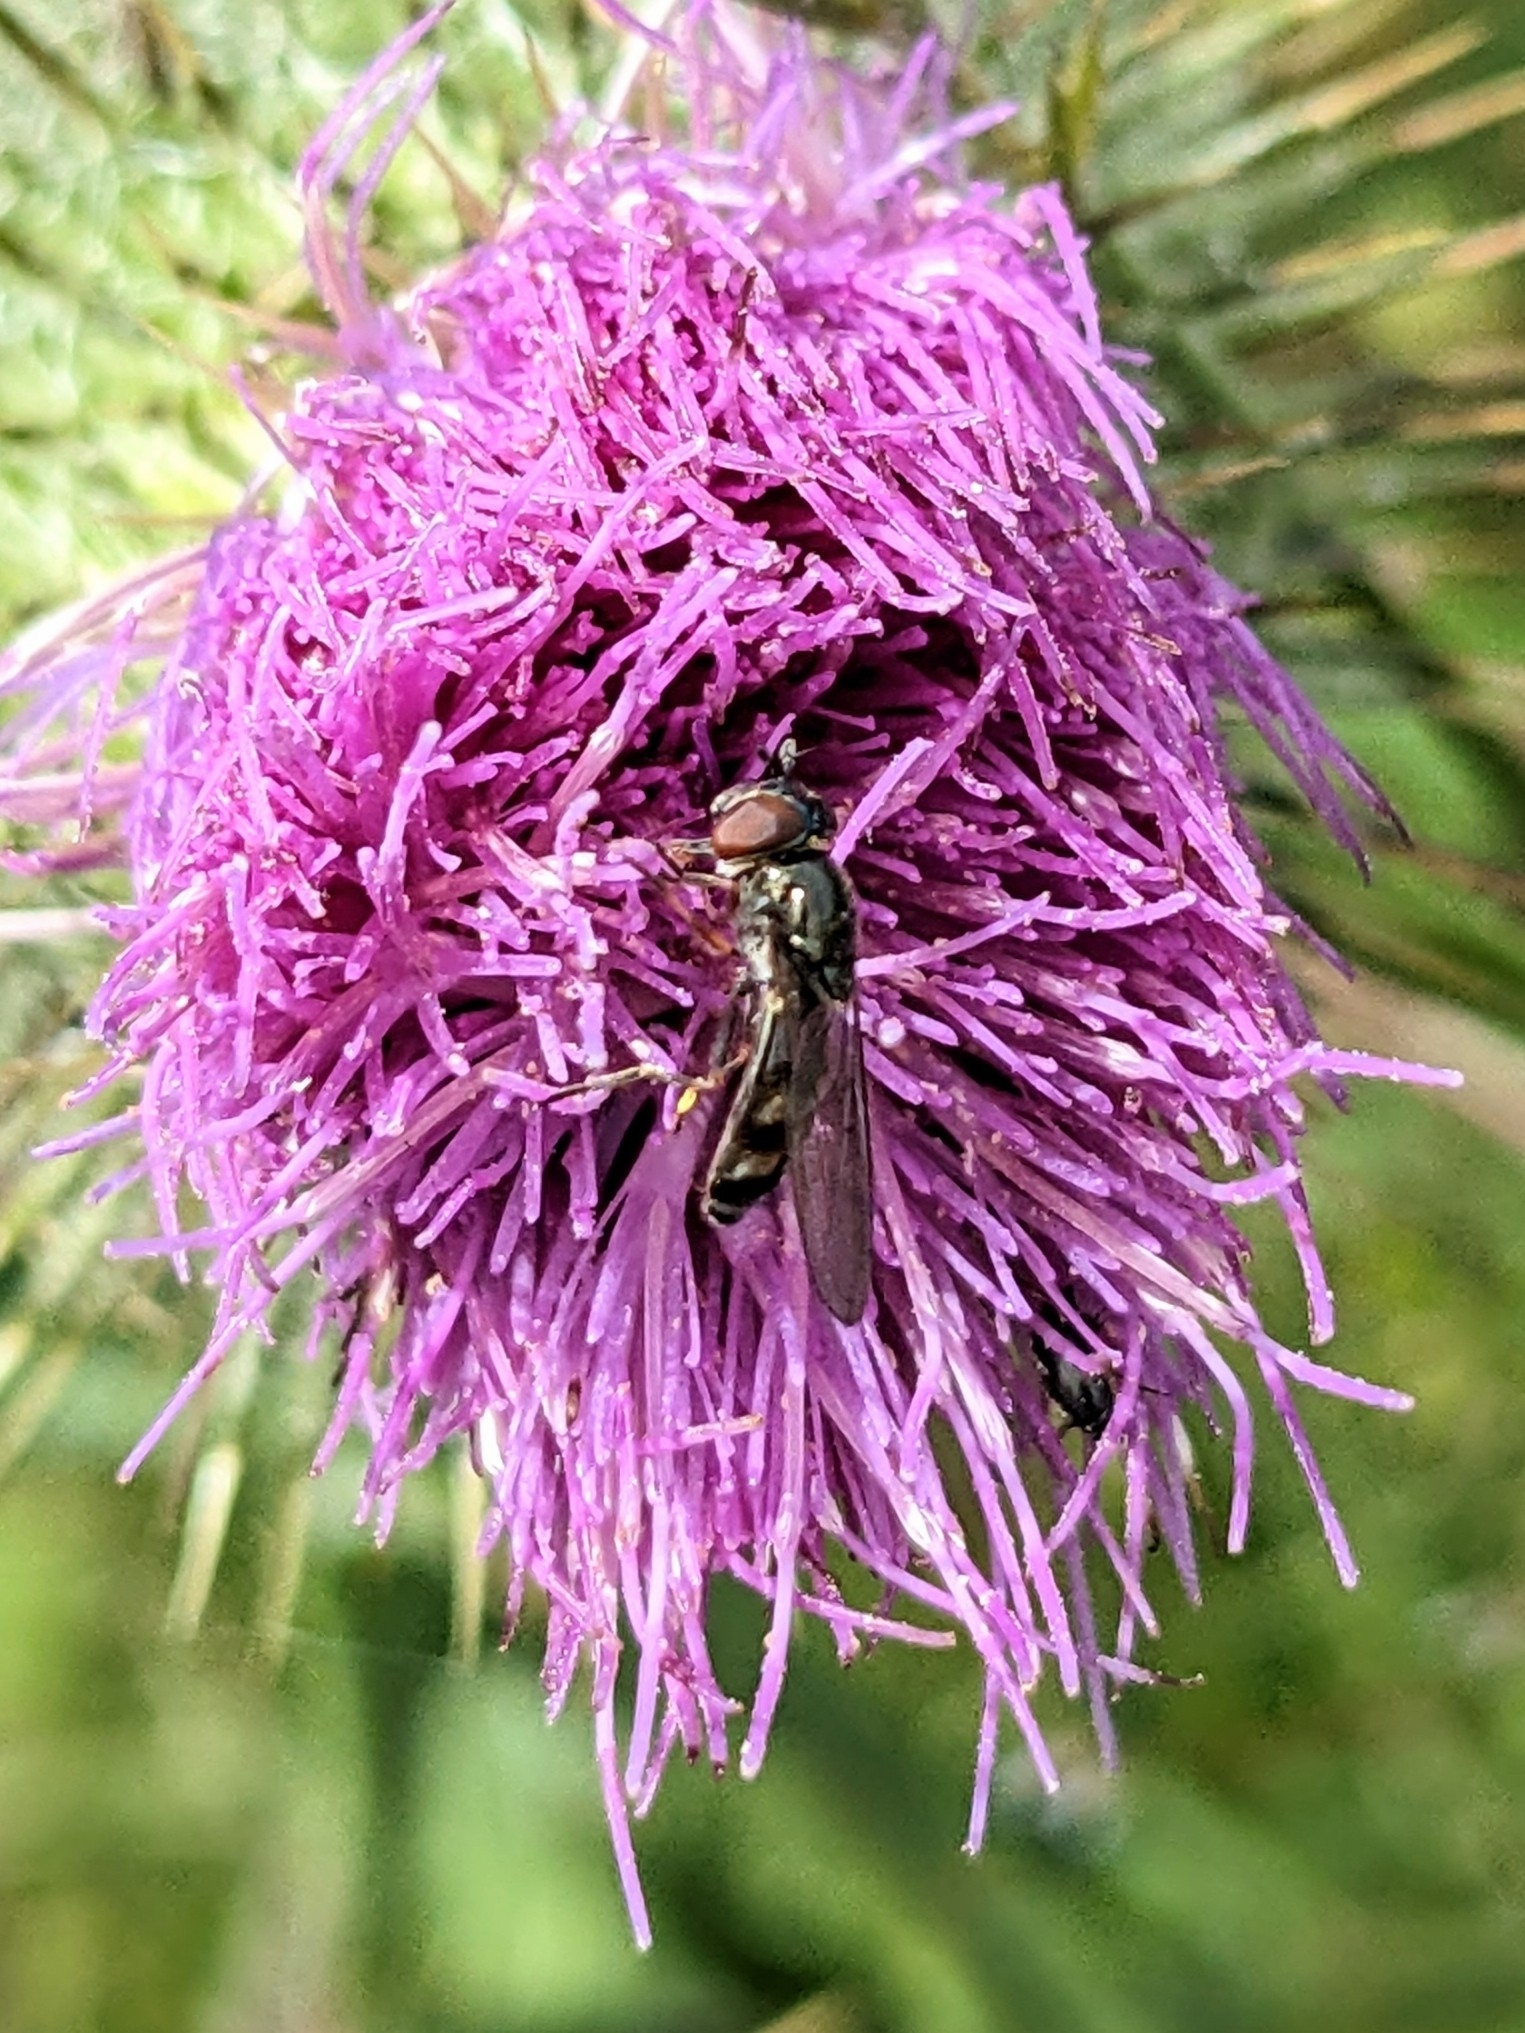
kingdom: Animalia
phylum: Arthropoda
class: Insecta
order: Diptera
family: Syrphidae
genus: Platycheirus
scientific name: Platycheirus albimanus
